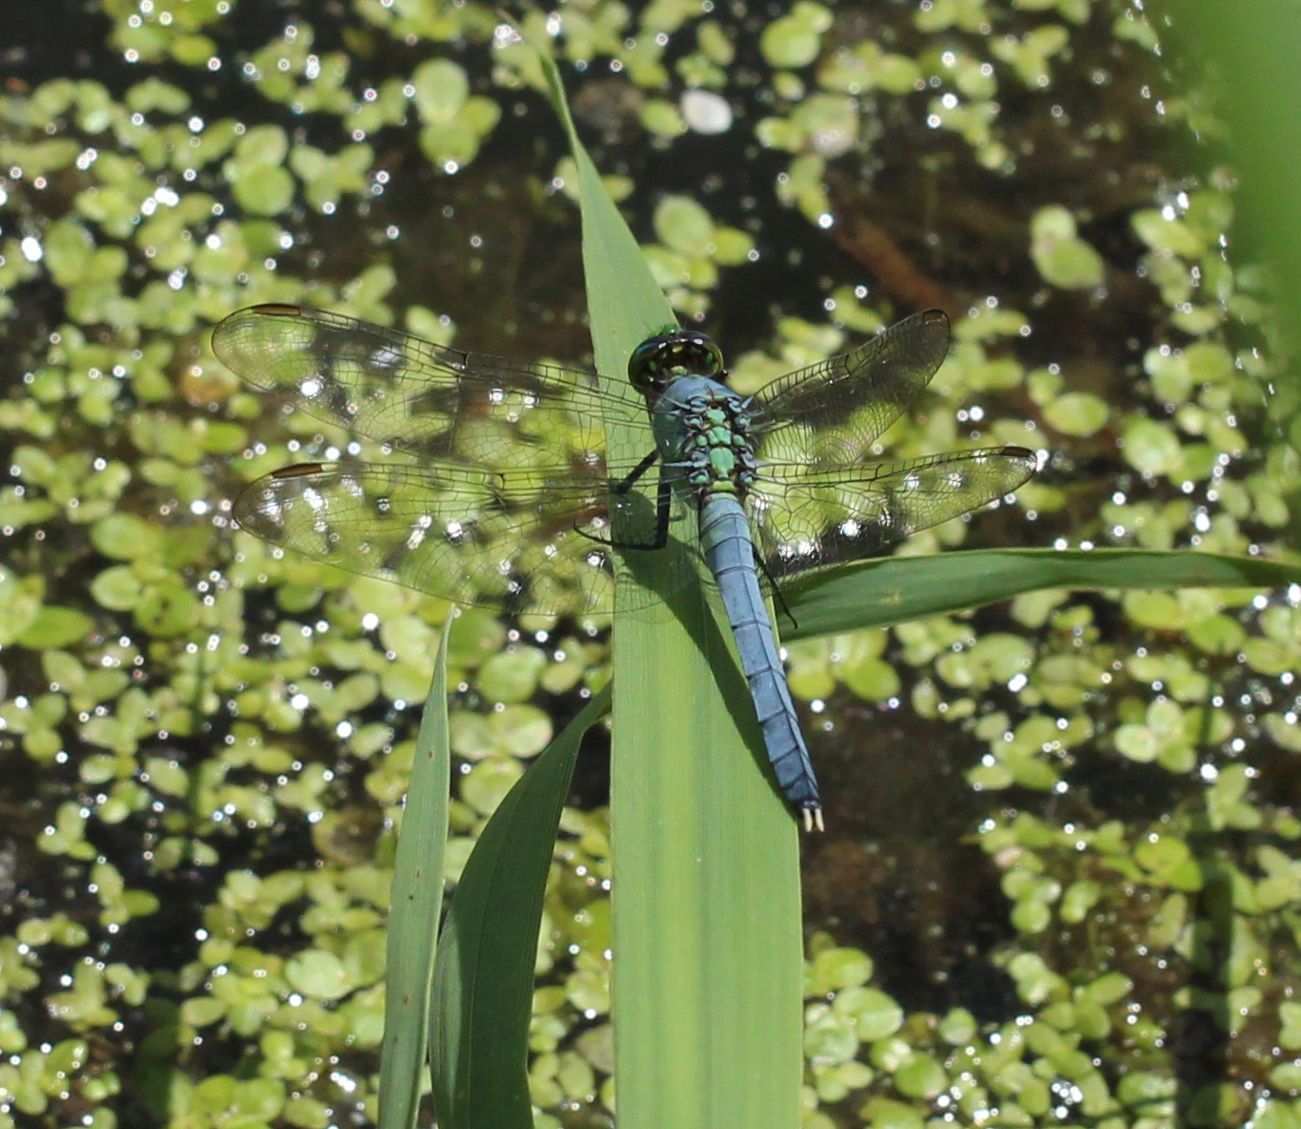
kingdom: Animalia
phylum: Arthropoda
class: Insecta
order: Odonata
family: Libellulidae
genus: Erythemis
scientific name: Erythemis simplicicollis
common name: Eastern pondhawk
